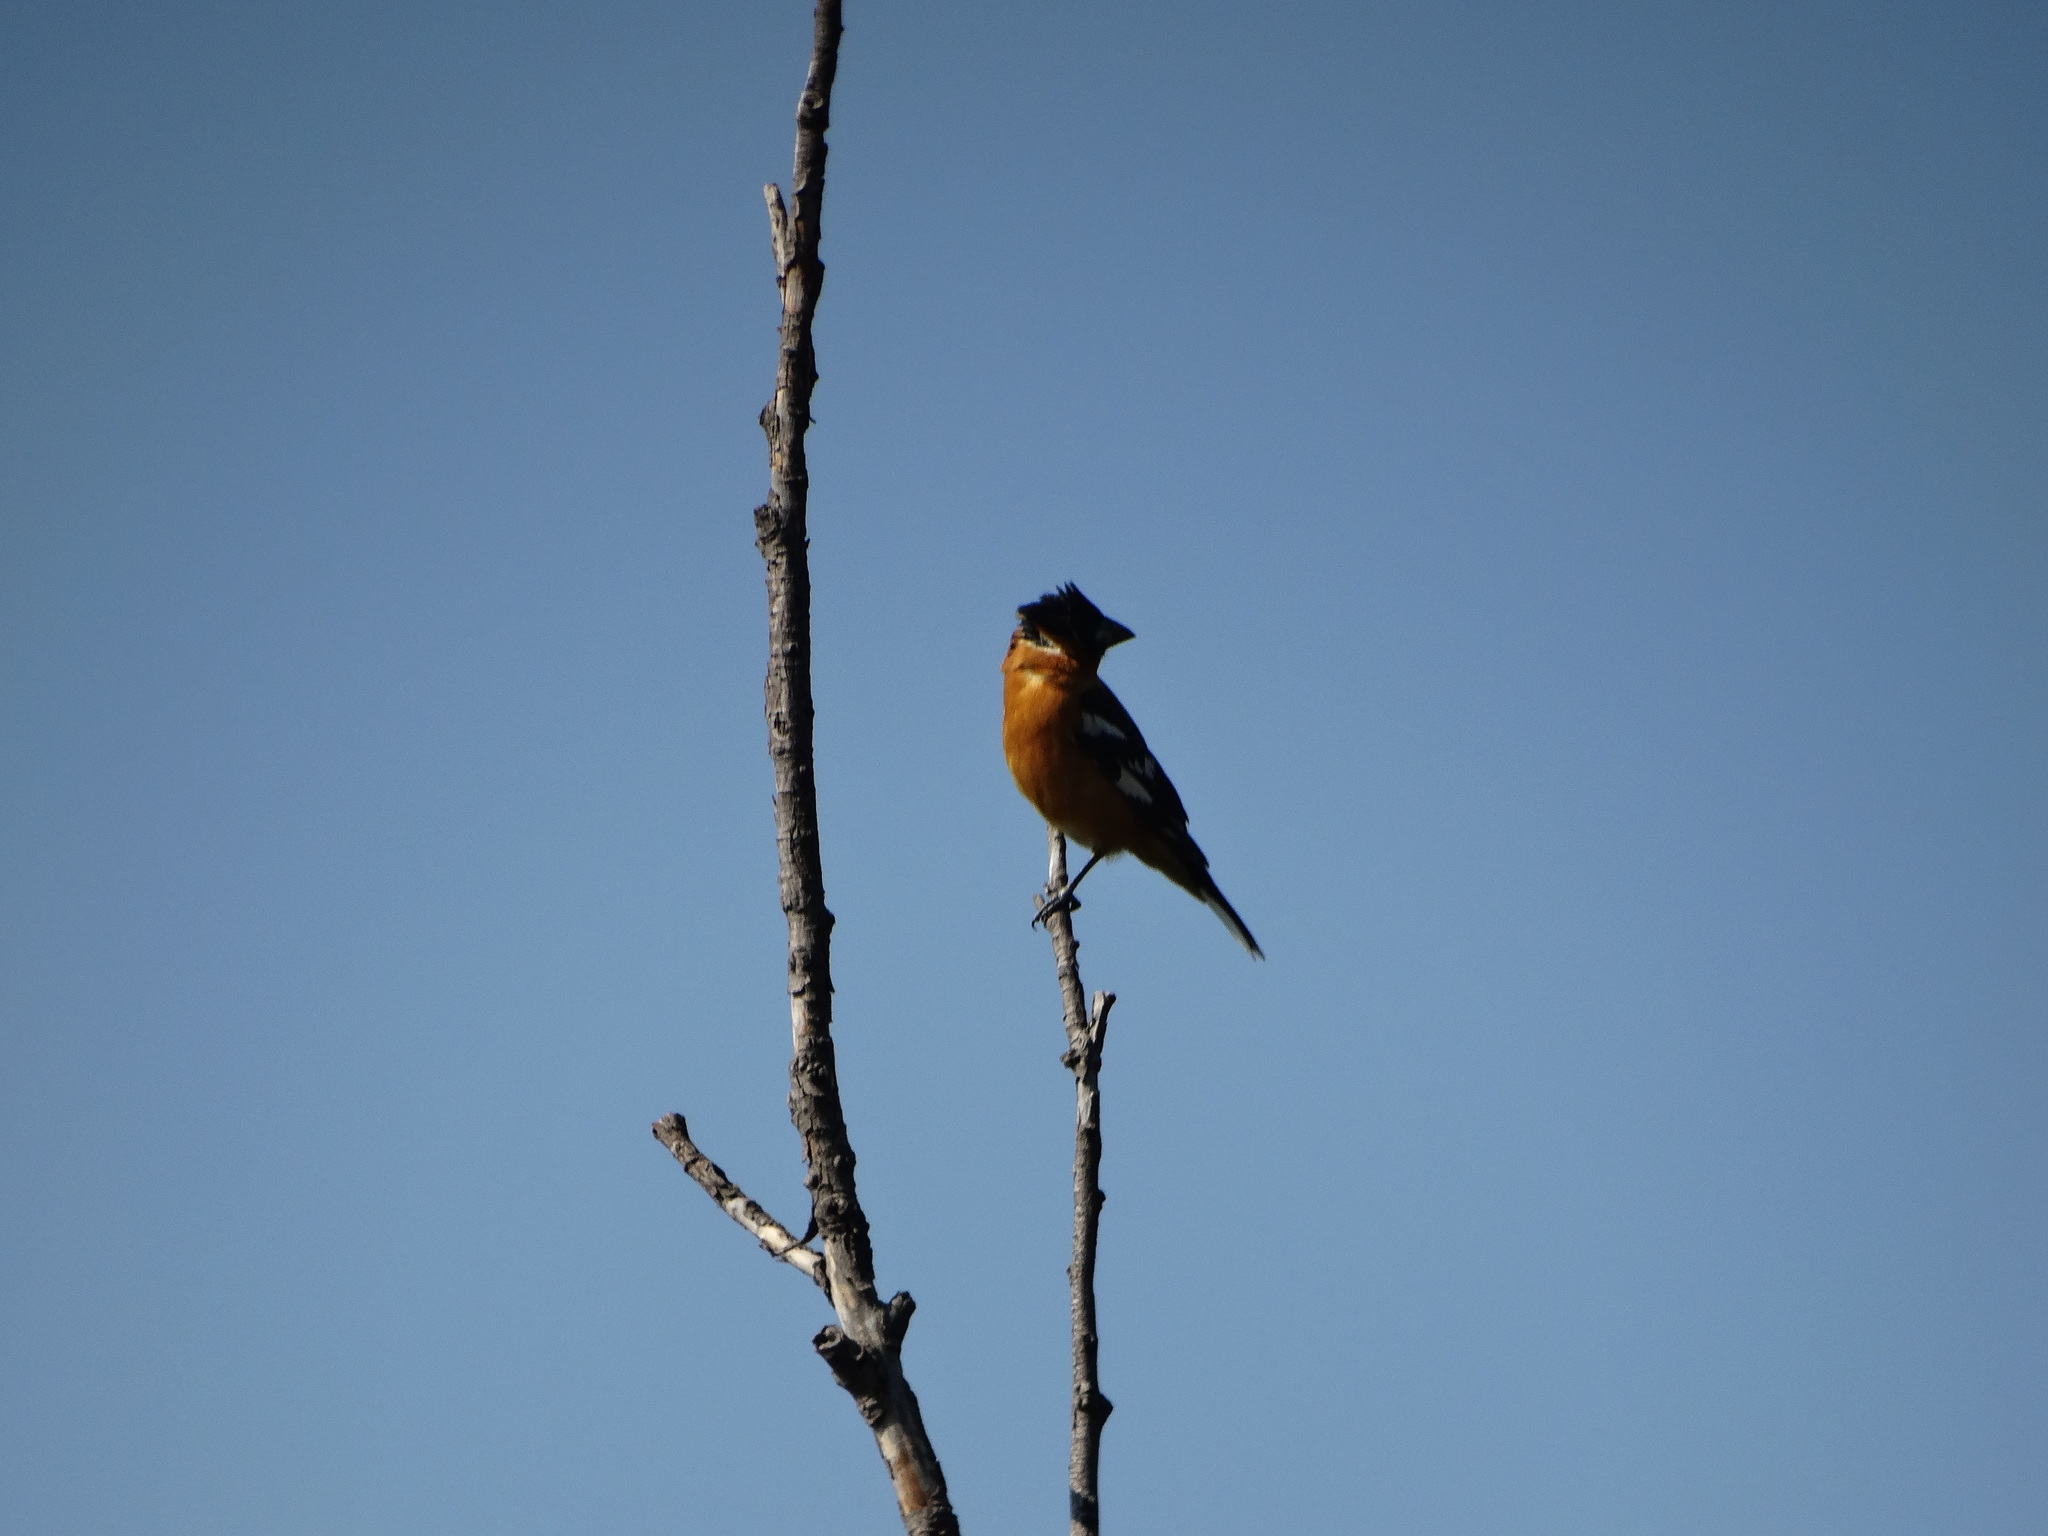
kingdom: Animalia
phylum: Chordata
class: Aves
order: Passeriformes
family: Cardinalidae
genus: Pheucticus
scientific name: Pheucticus melanocephalus
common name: Black-headed grosbeak
